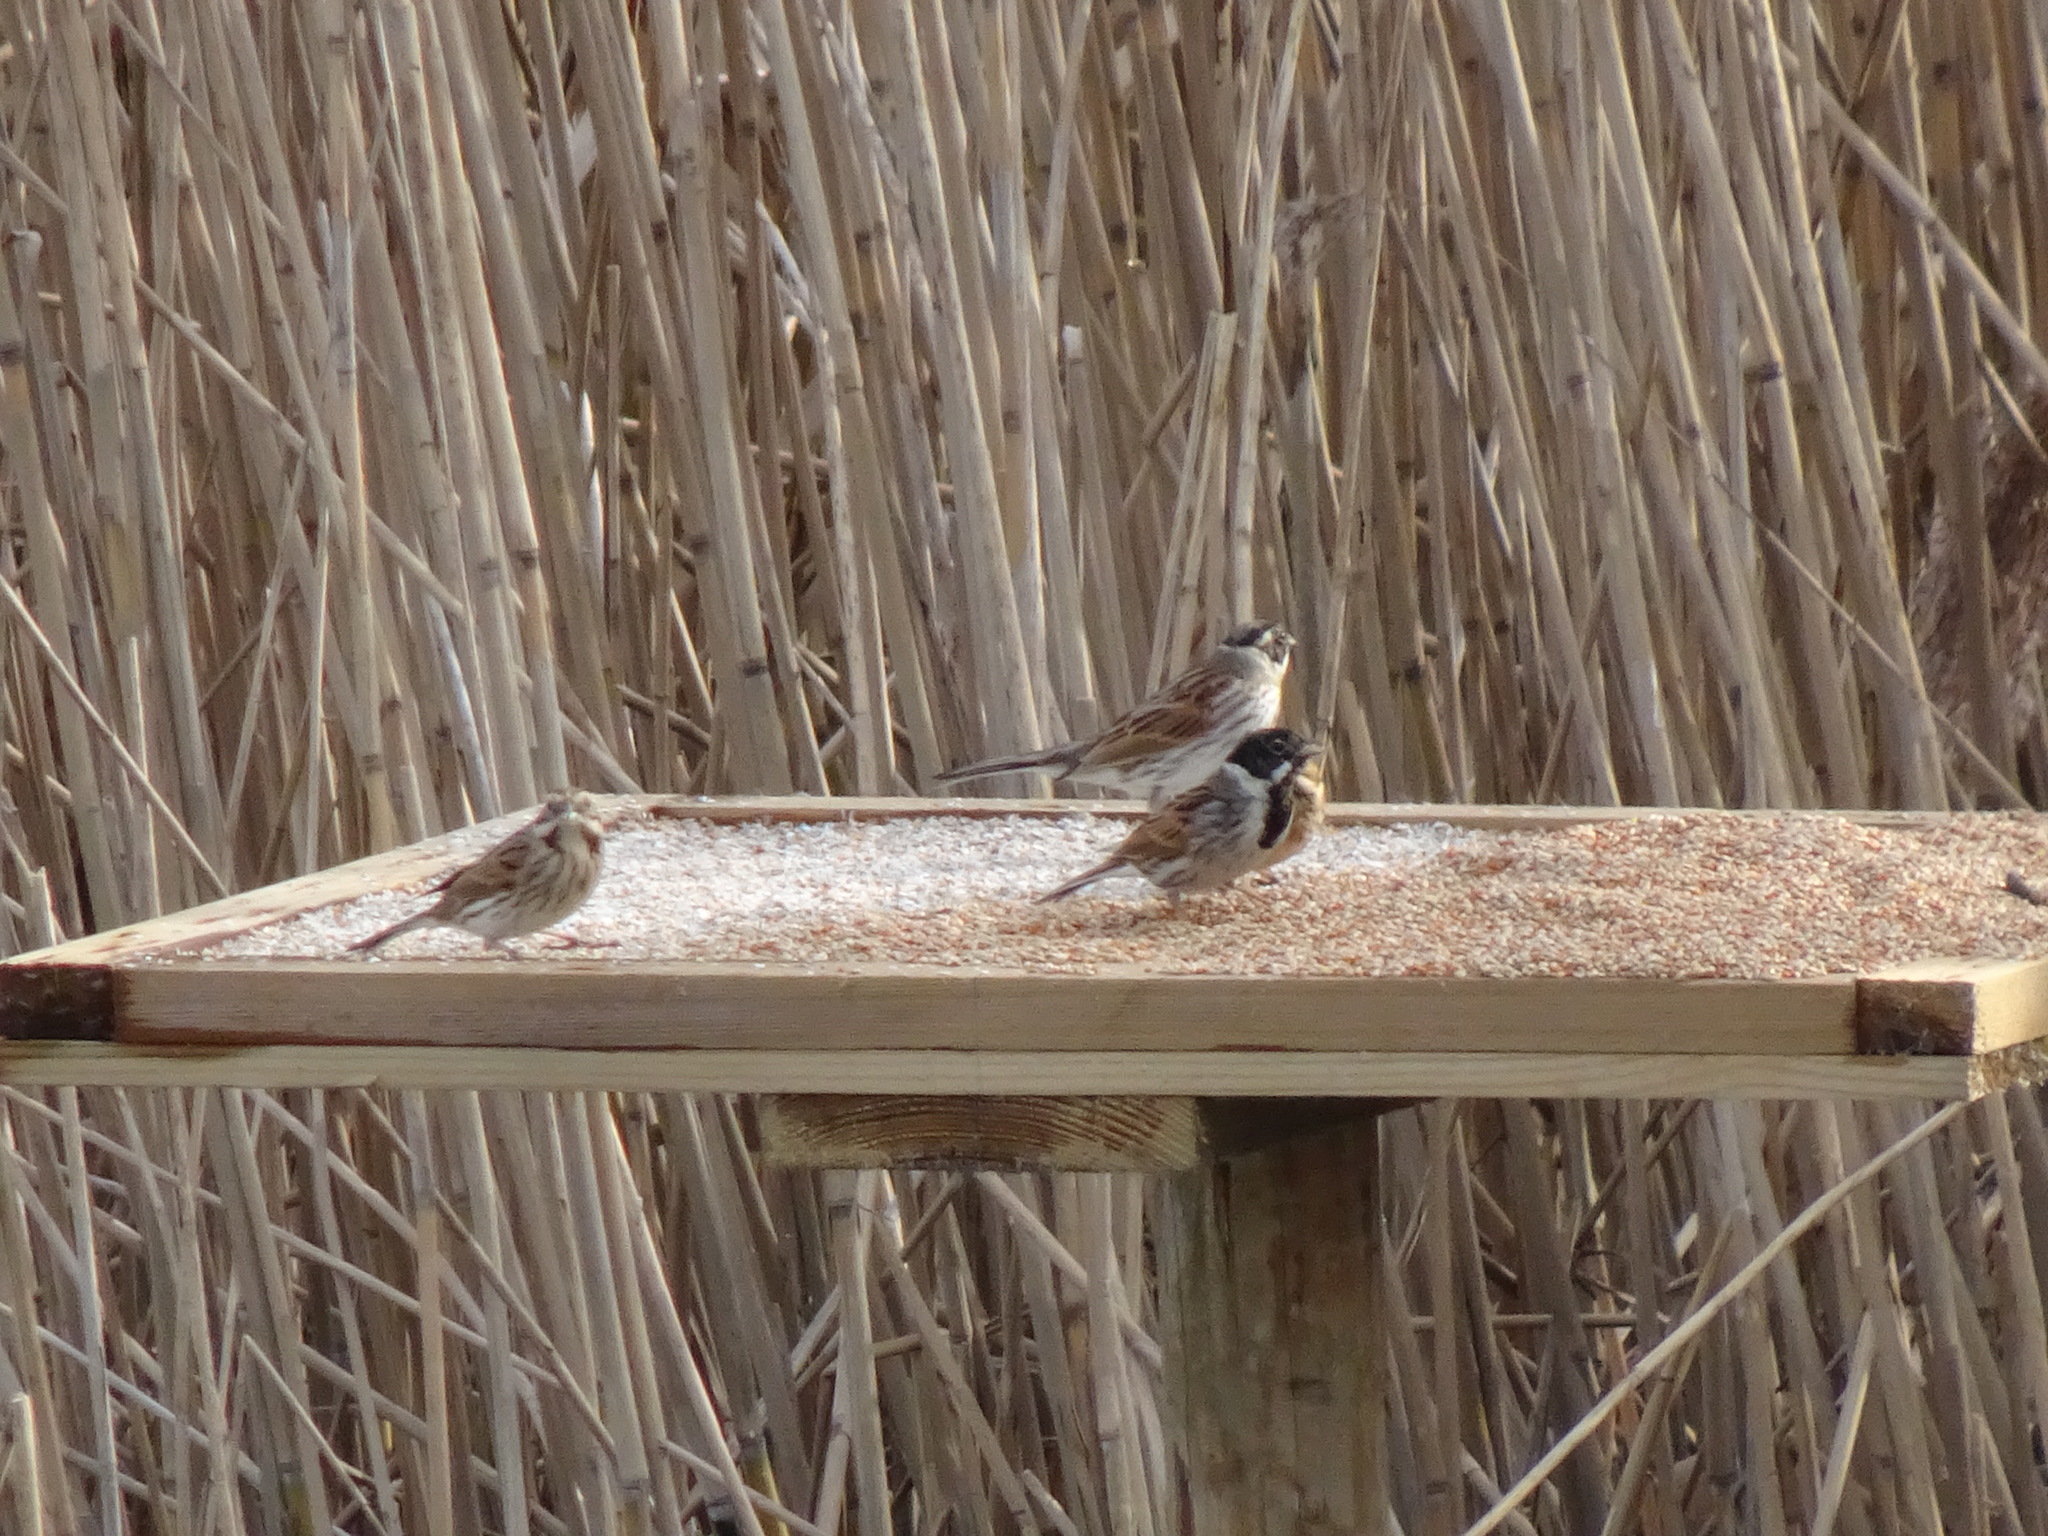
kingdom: Animalia
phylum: Chordata
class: Aves
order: Passeriformes
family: Emberizidae
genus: Emberiza
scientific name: Emberiza schoeniclus
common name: Reed bunting
